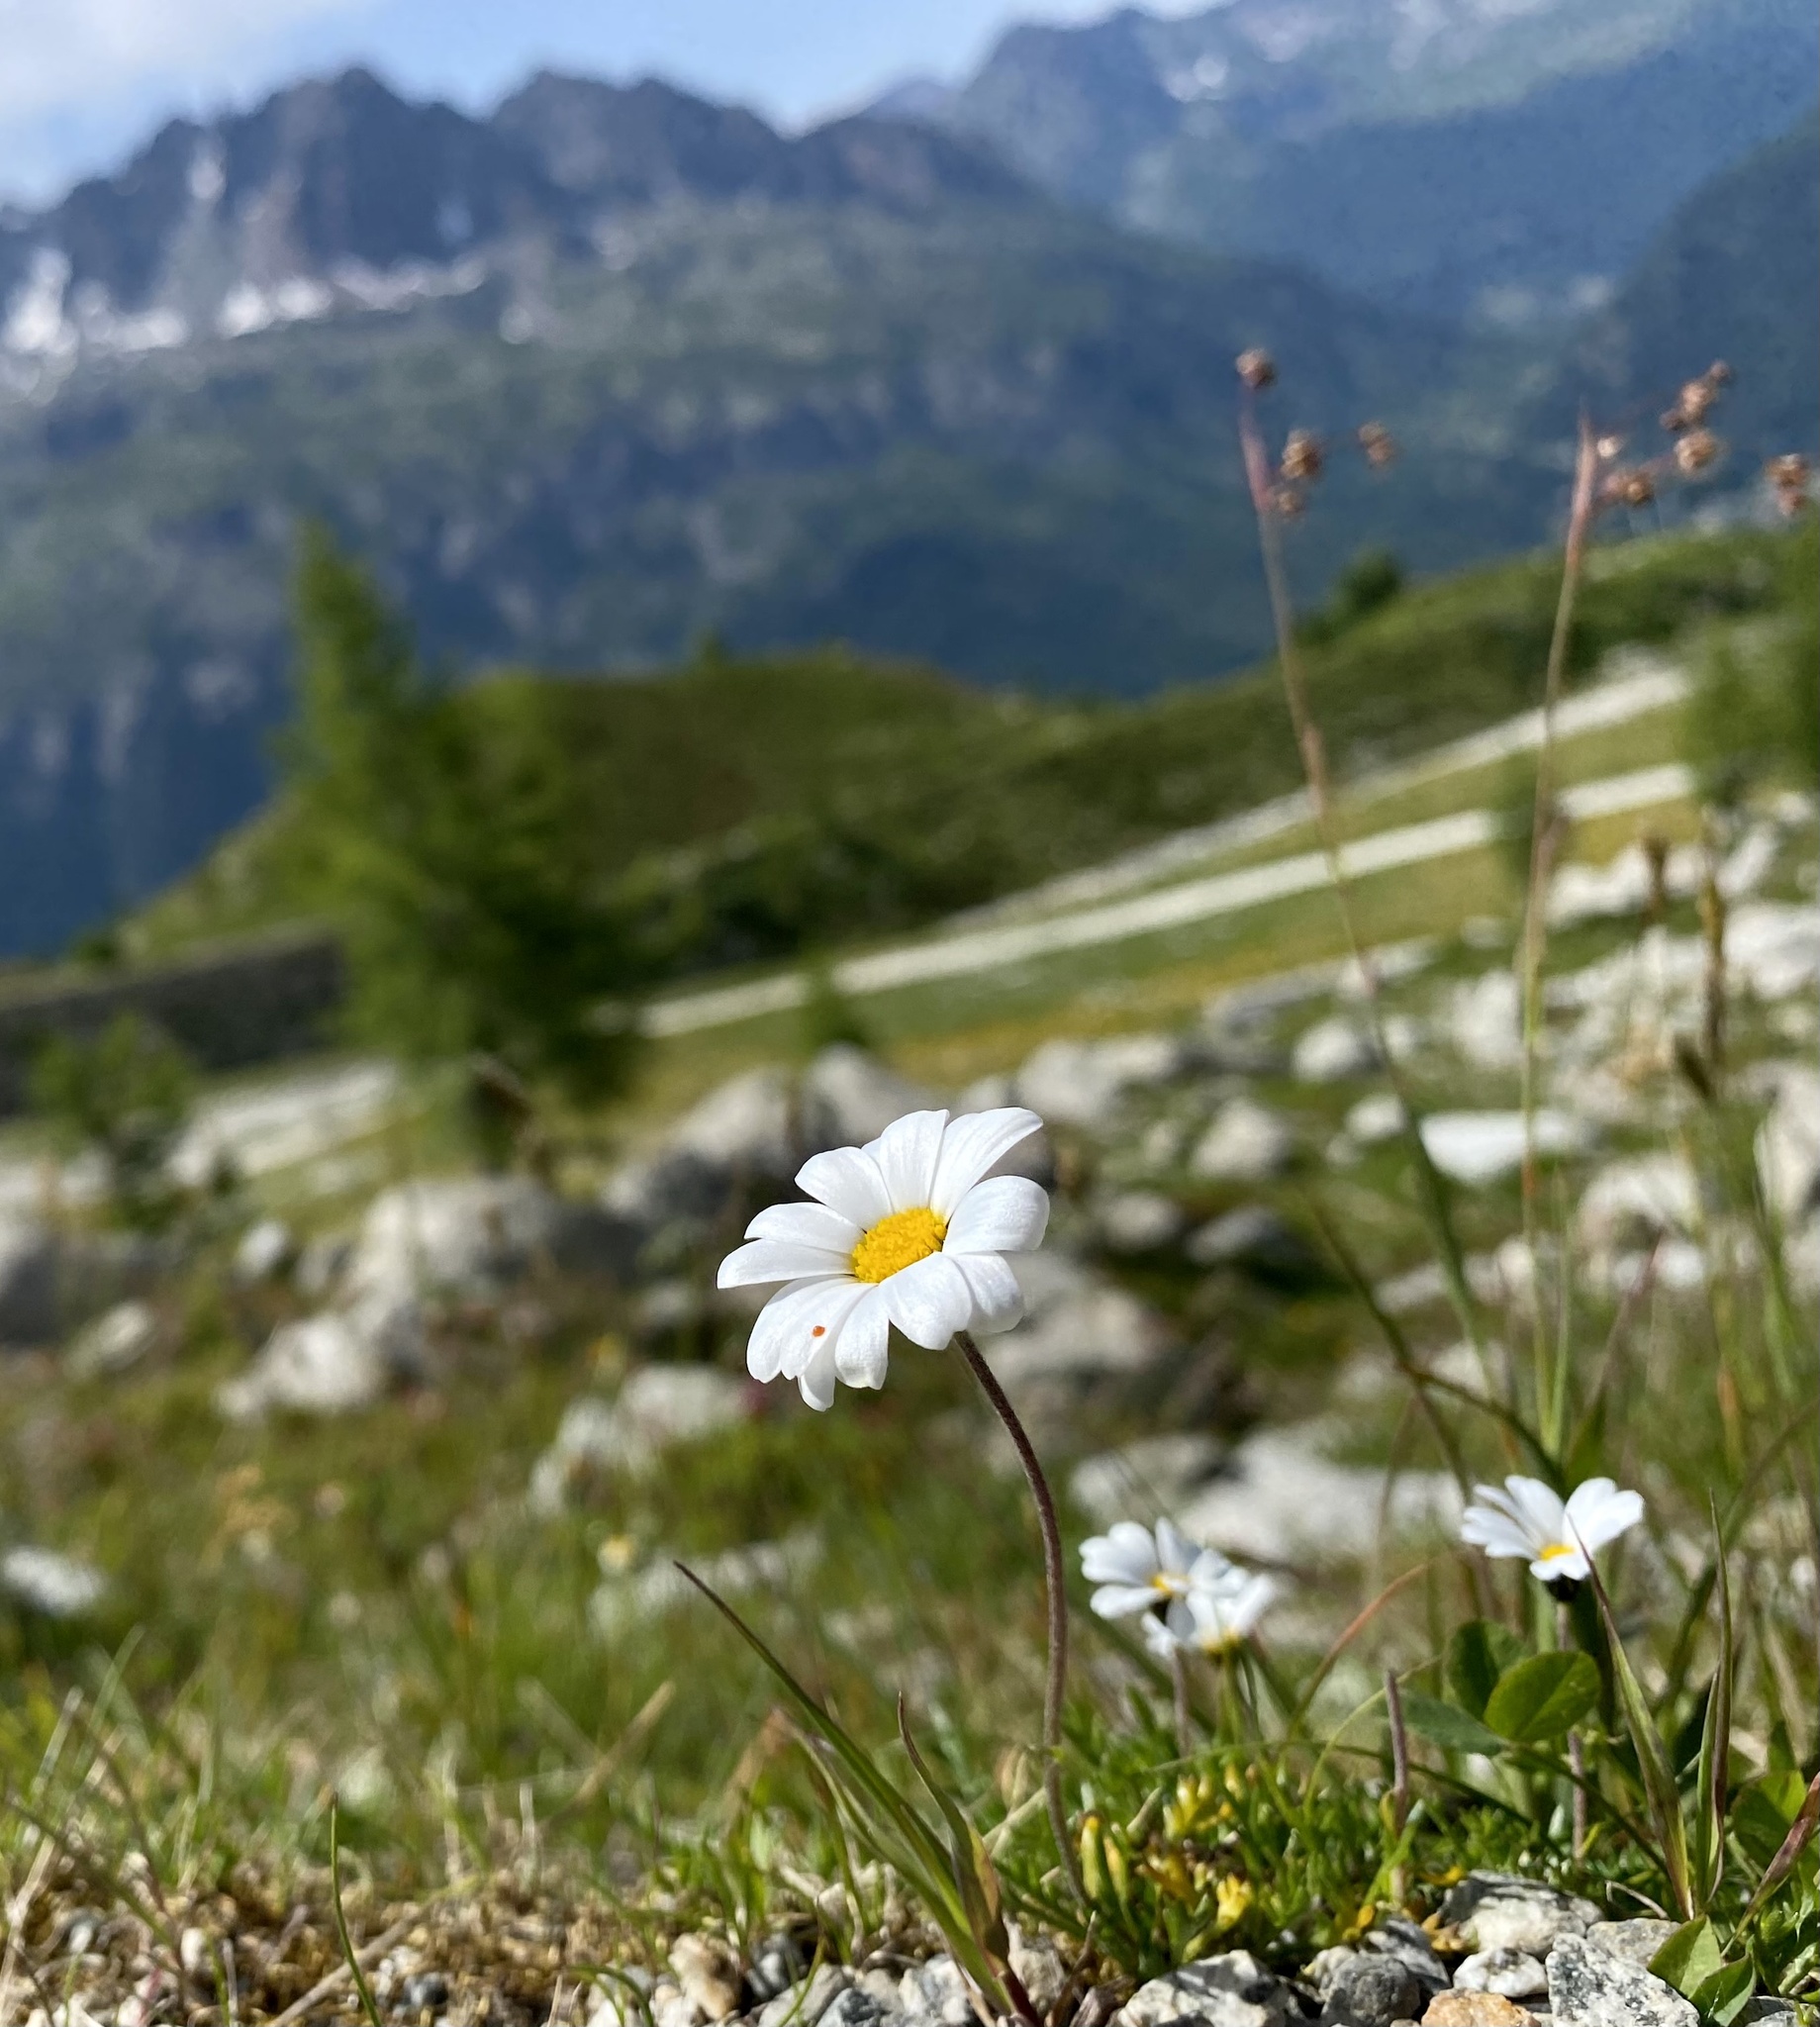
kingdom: Plantae
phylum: Tracheophyta
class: Magnoliopsida
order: Asterales
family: Asteraceae
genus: Leucanthemopsis
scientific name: Leucanthemopsis alpina
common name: Alpine moon daisy
